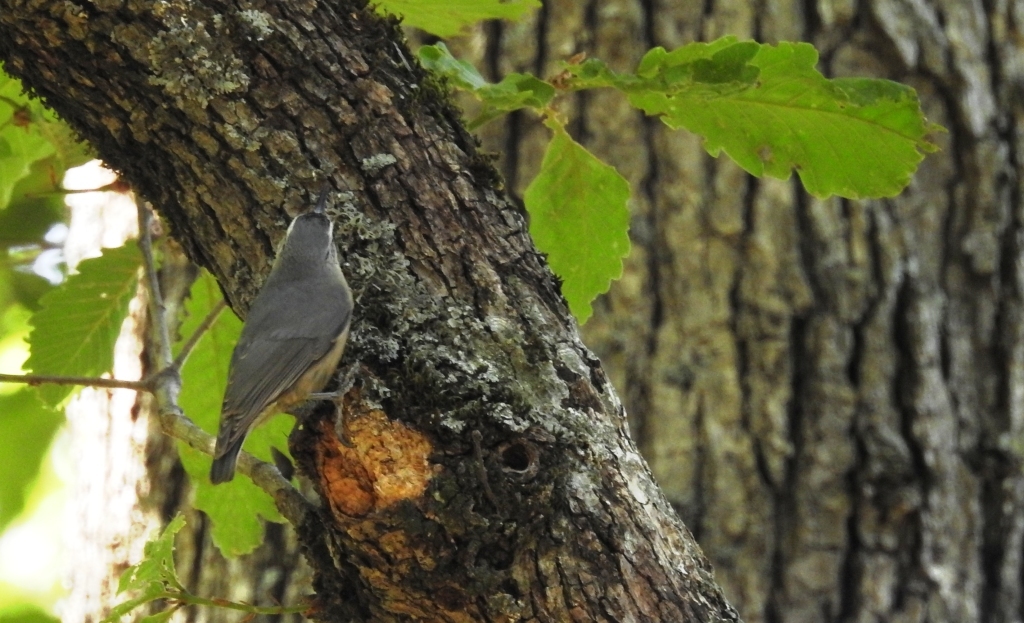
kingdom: Animalia
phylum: Chordata
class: Aves
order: Passeriformes
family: Sittidae
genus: Sitta
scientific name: Sitta ledanti
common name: Algerian nuthatch
